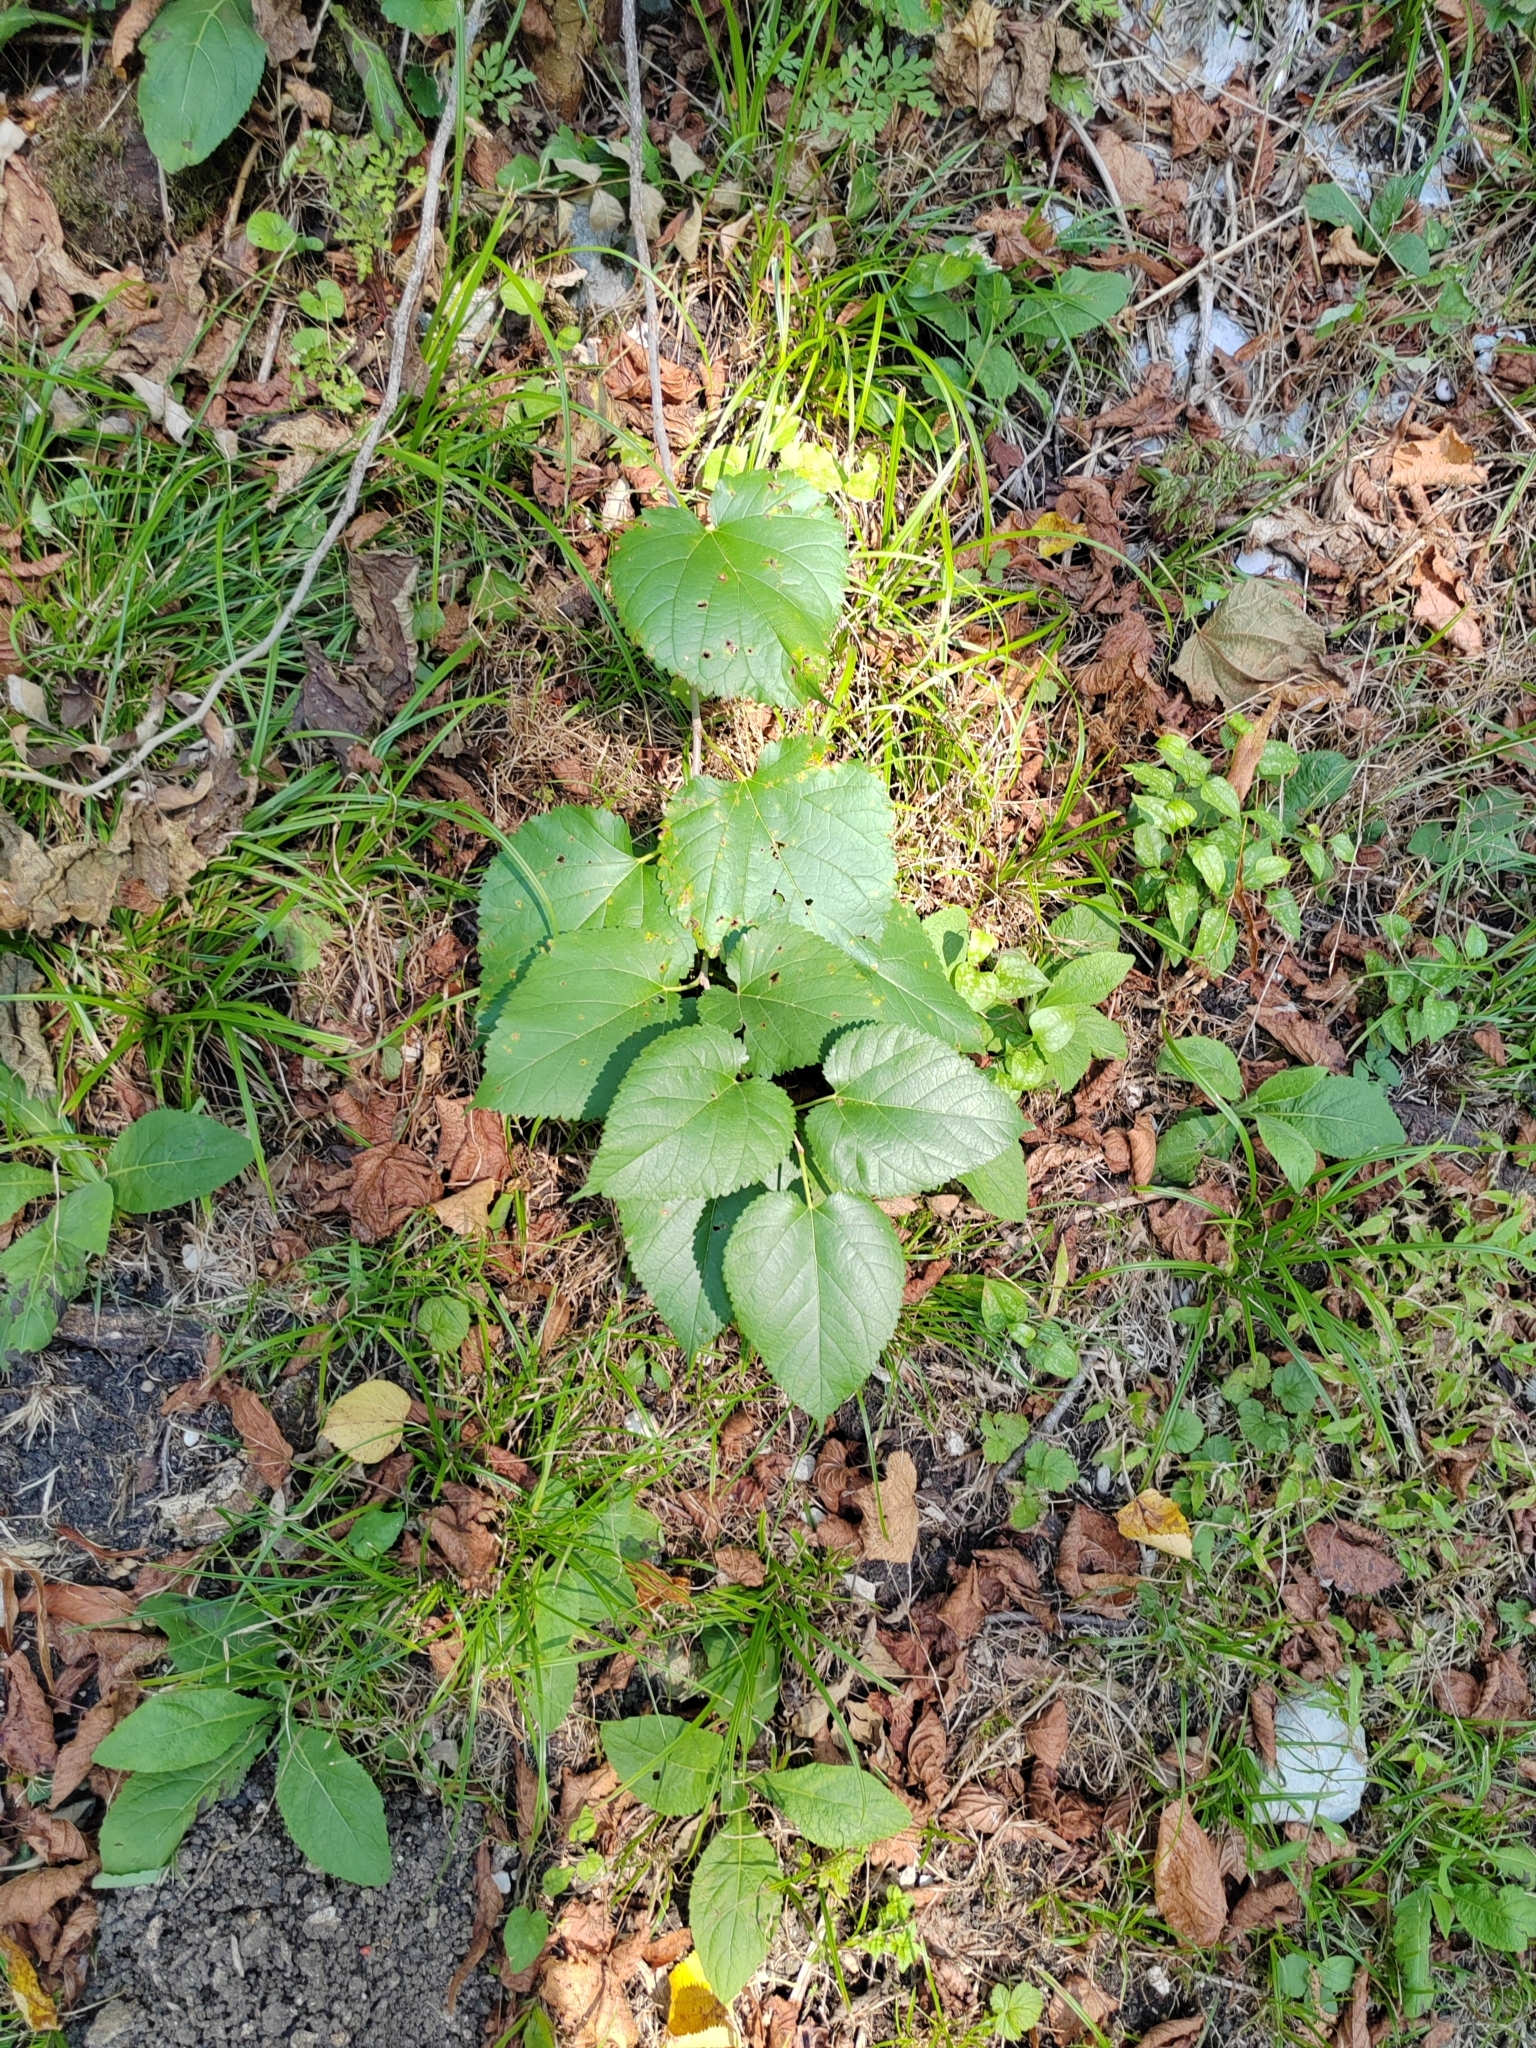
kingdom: Plantae
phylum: Tracheophyta
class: Magnoliopsida
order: Malvales
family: Malvaceae
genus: Tilia
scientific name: Tilia
